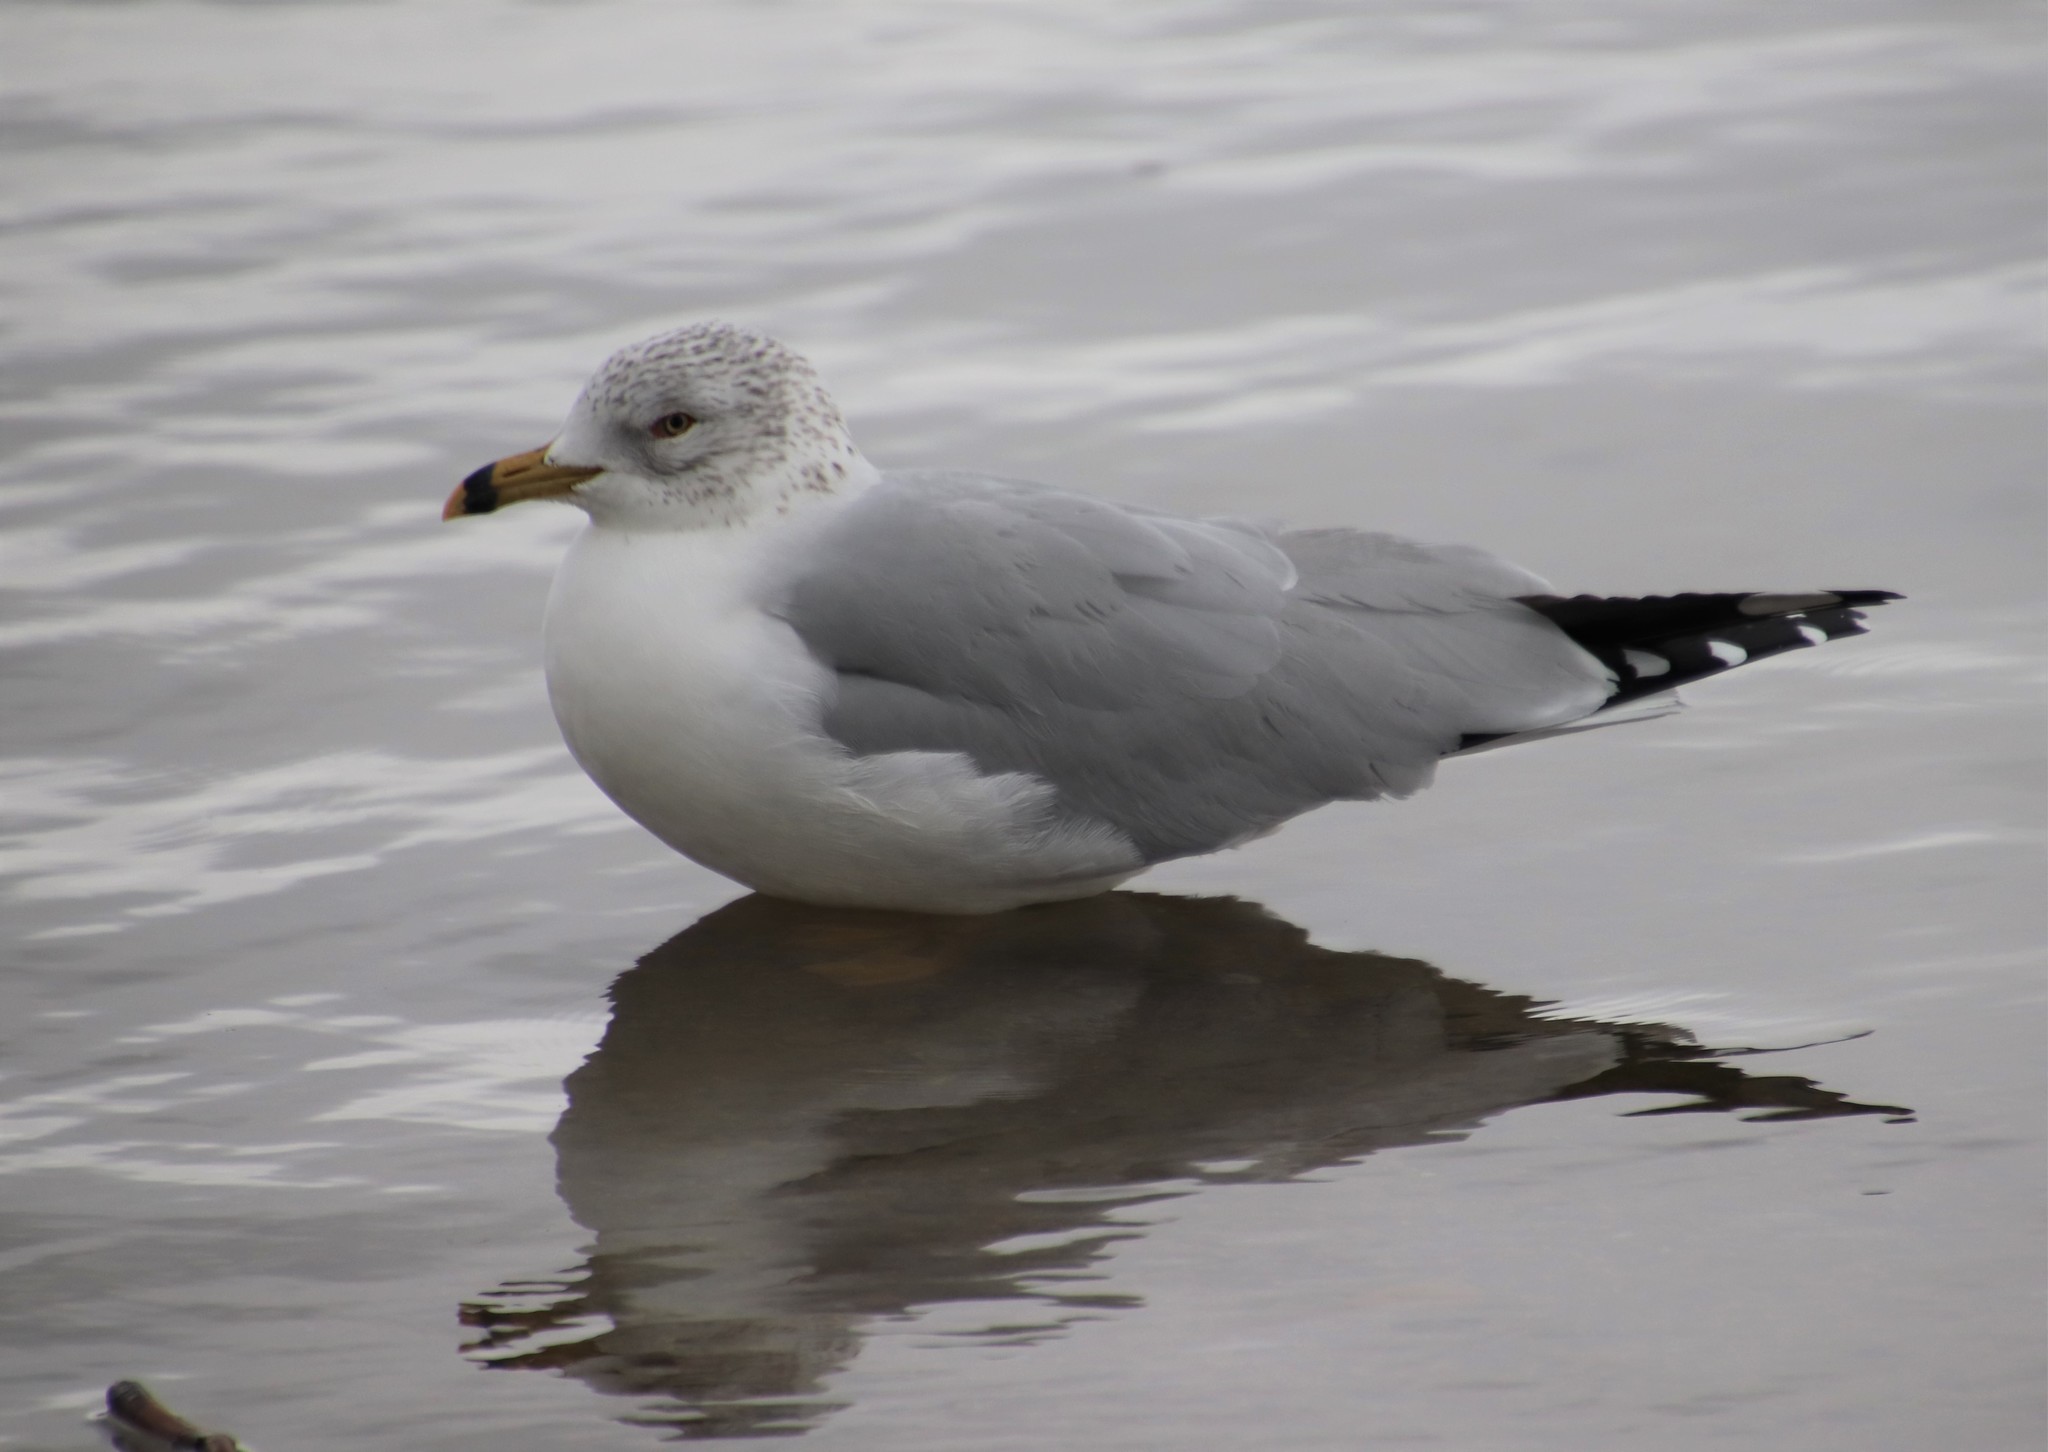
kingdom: Animalia
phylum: Chordata
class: Aves
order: Charadriiformes
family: Laridae
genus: Larus
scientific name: Larus delawarensis
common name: Ring-billed gull
